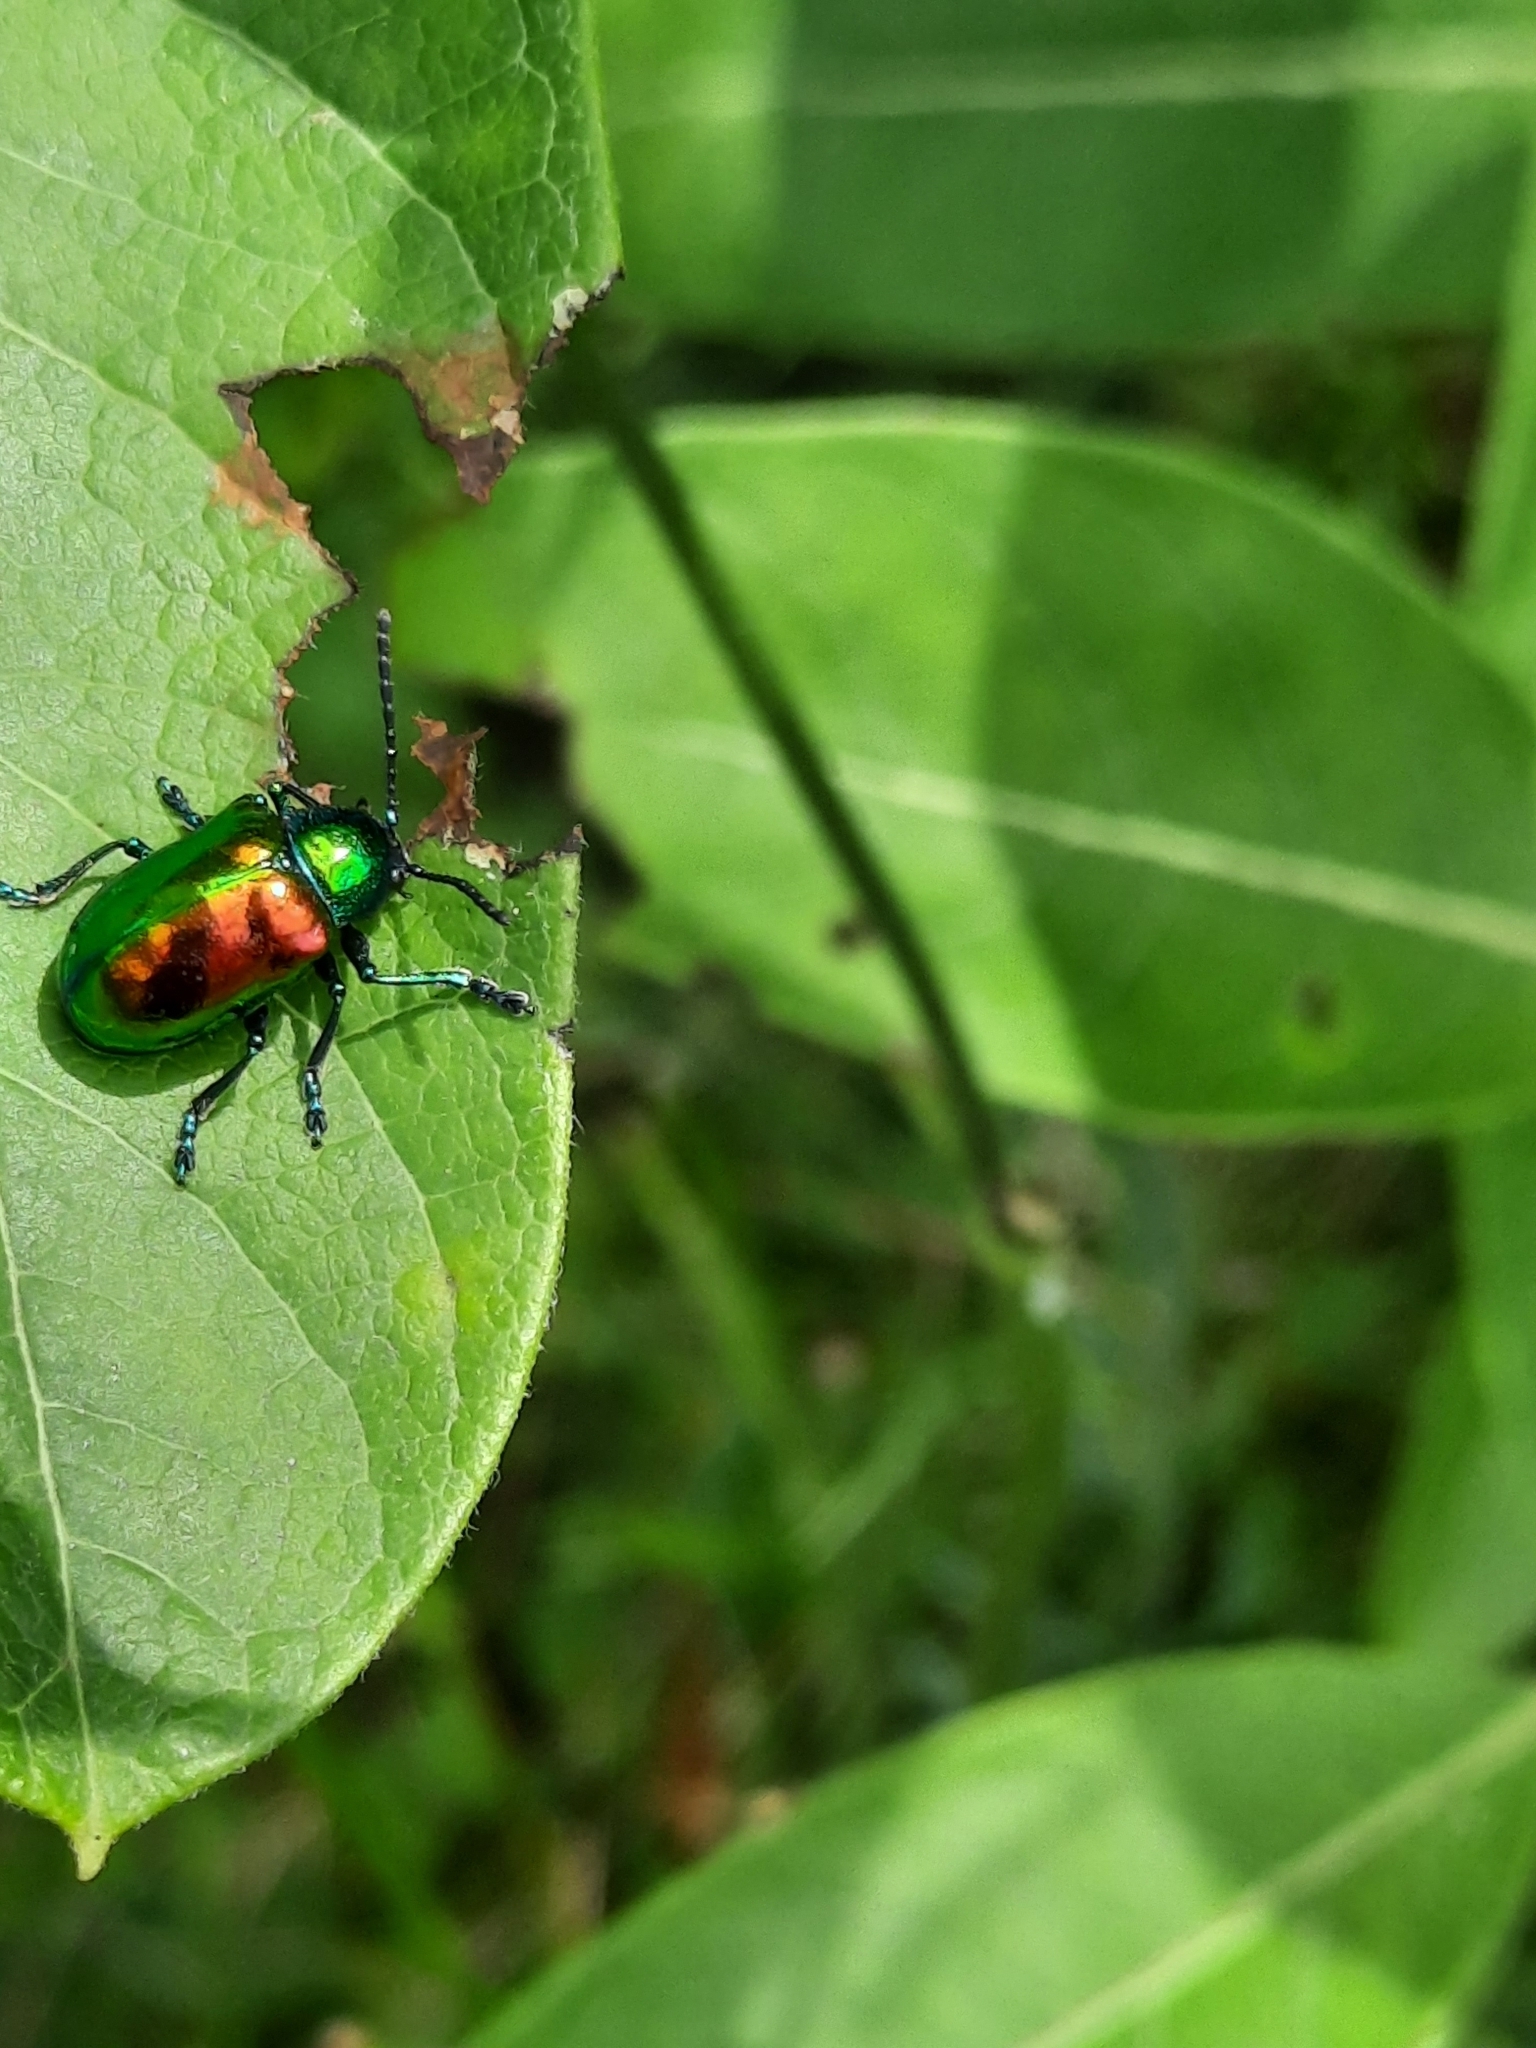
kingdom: Animalia
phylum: Arthropoda
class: Insecta
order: Coleoptera
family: Chrysomelidae
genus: Chrysochus
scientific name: Chrysochus auratus
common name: Dogbane leaf beetle
